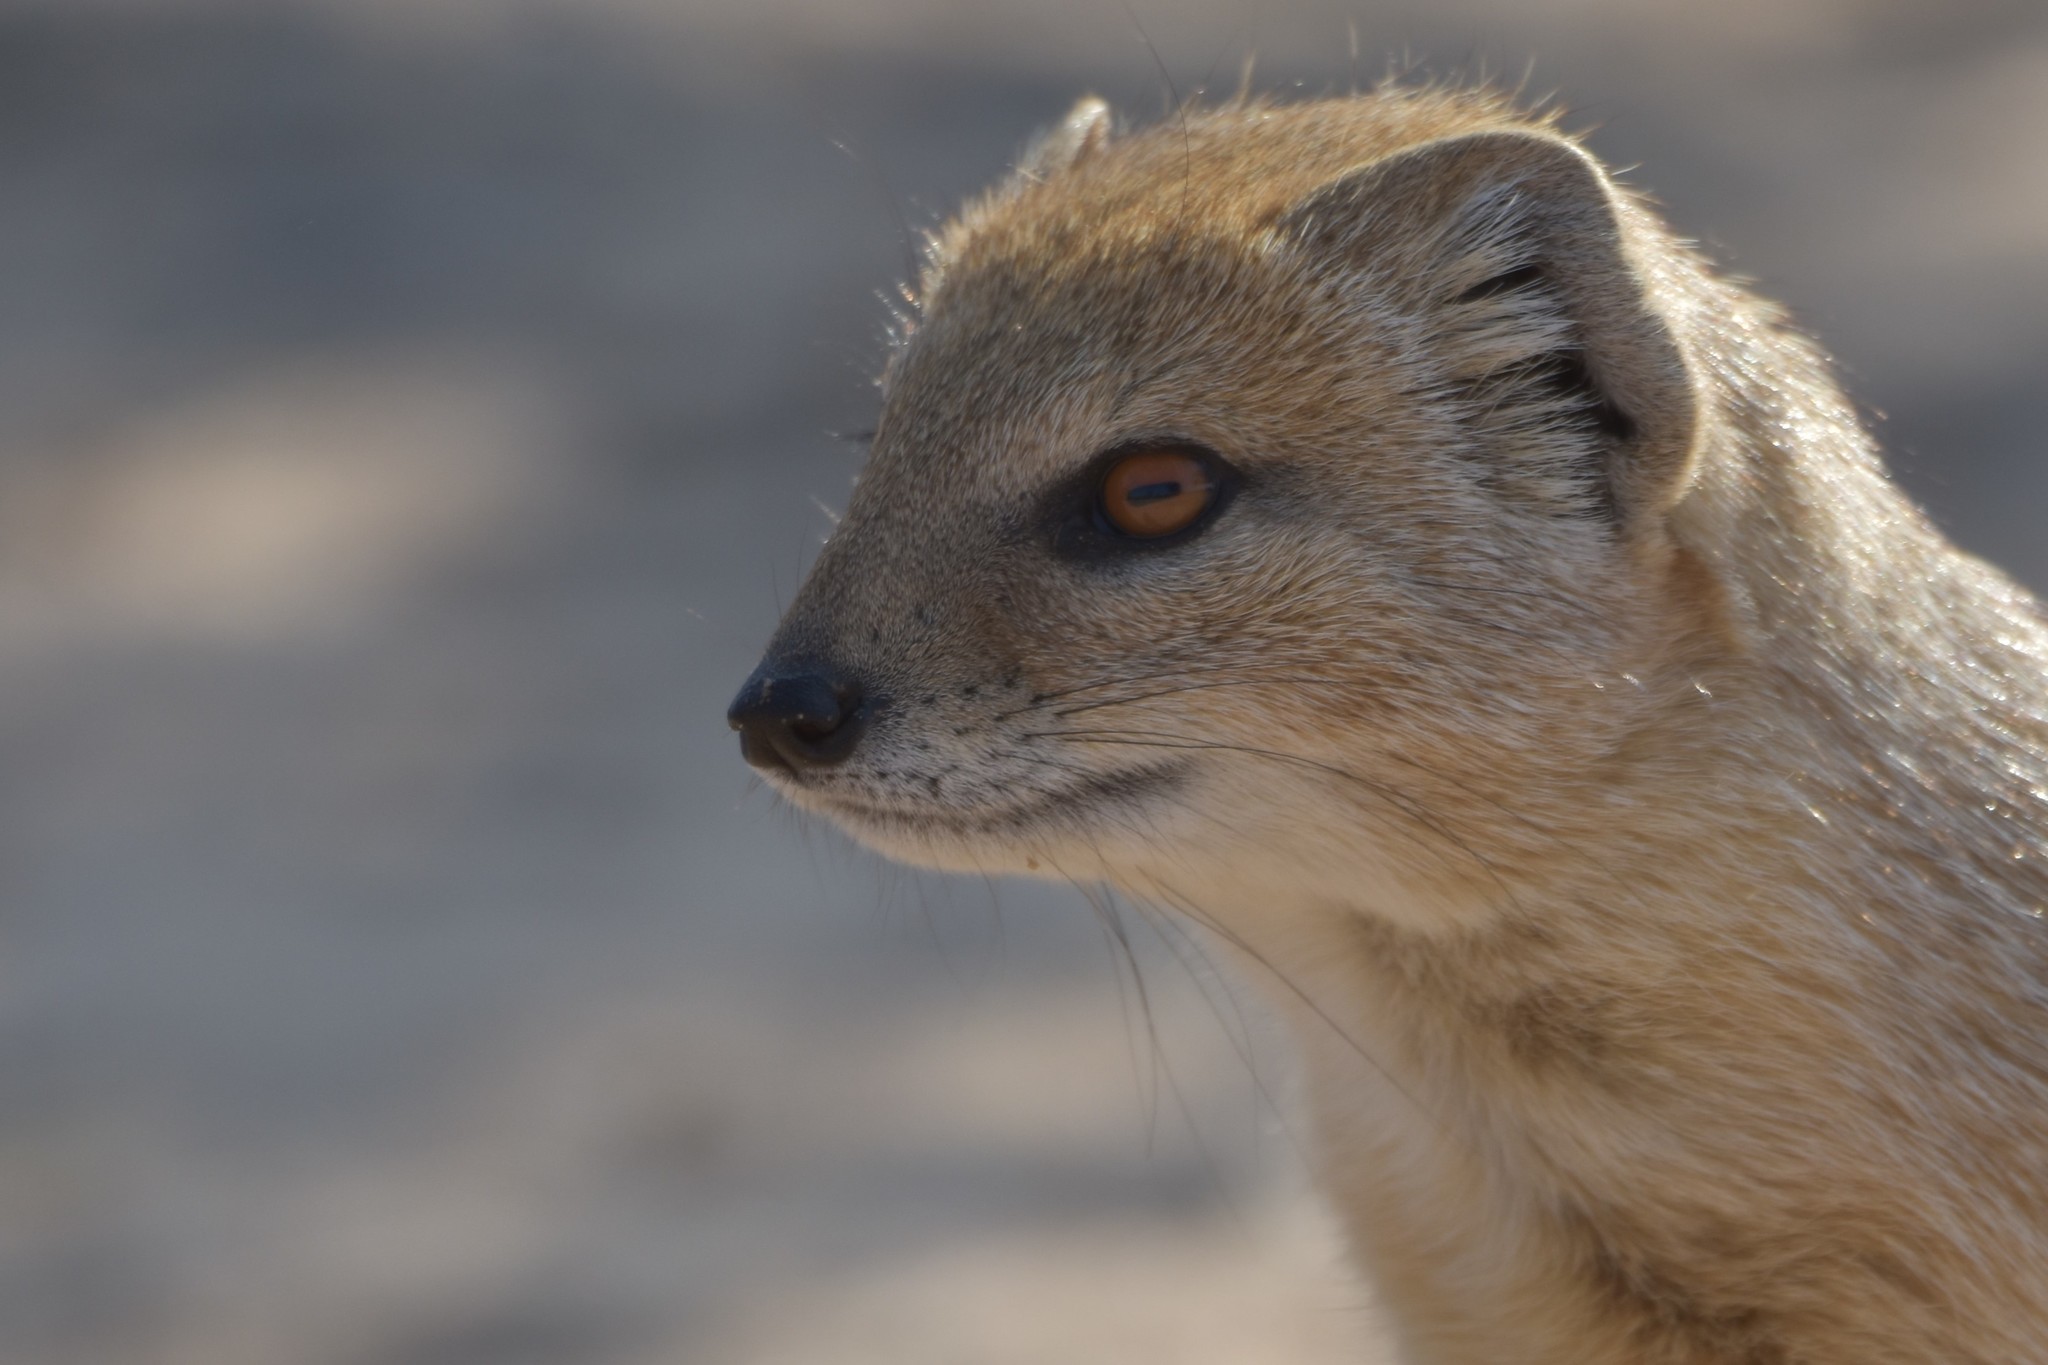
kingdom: Animalia
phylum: Chordata
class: Mammalia
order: Carnivora
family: Herpestidae
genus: Cynictis
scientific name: Cynictis penicillata
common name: Yellow mongoose
